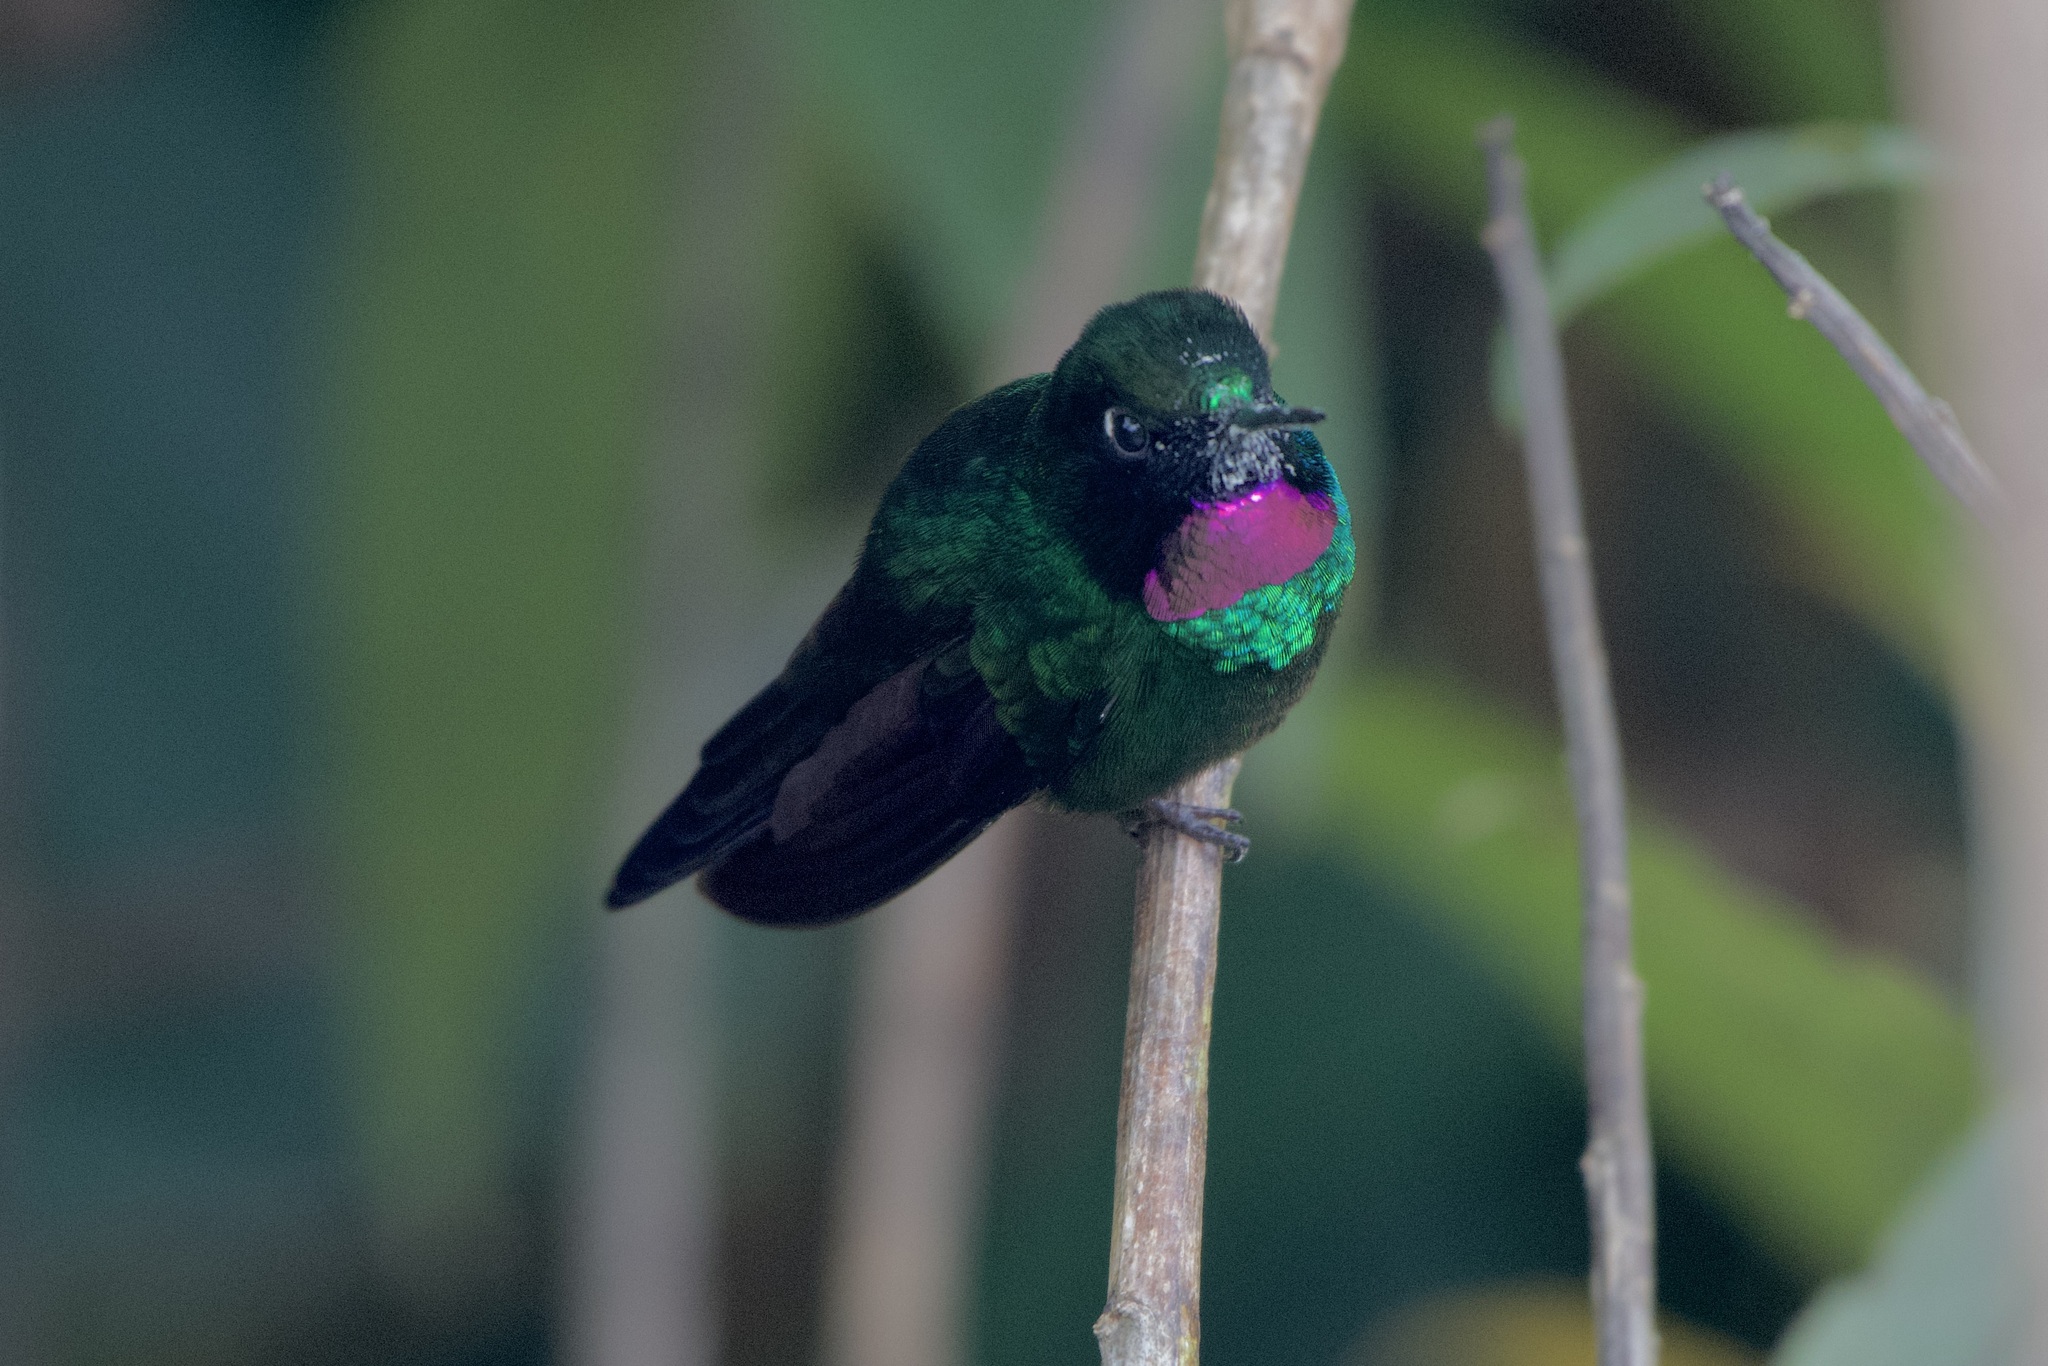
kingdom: Animalia
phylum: Chordata
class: Aves
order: Apodiformes
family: Trochilidae
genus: Heliangelus
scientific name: Heliangelus exortis
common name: Tourmaline sunangel
